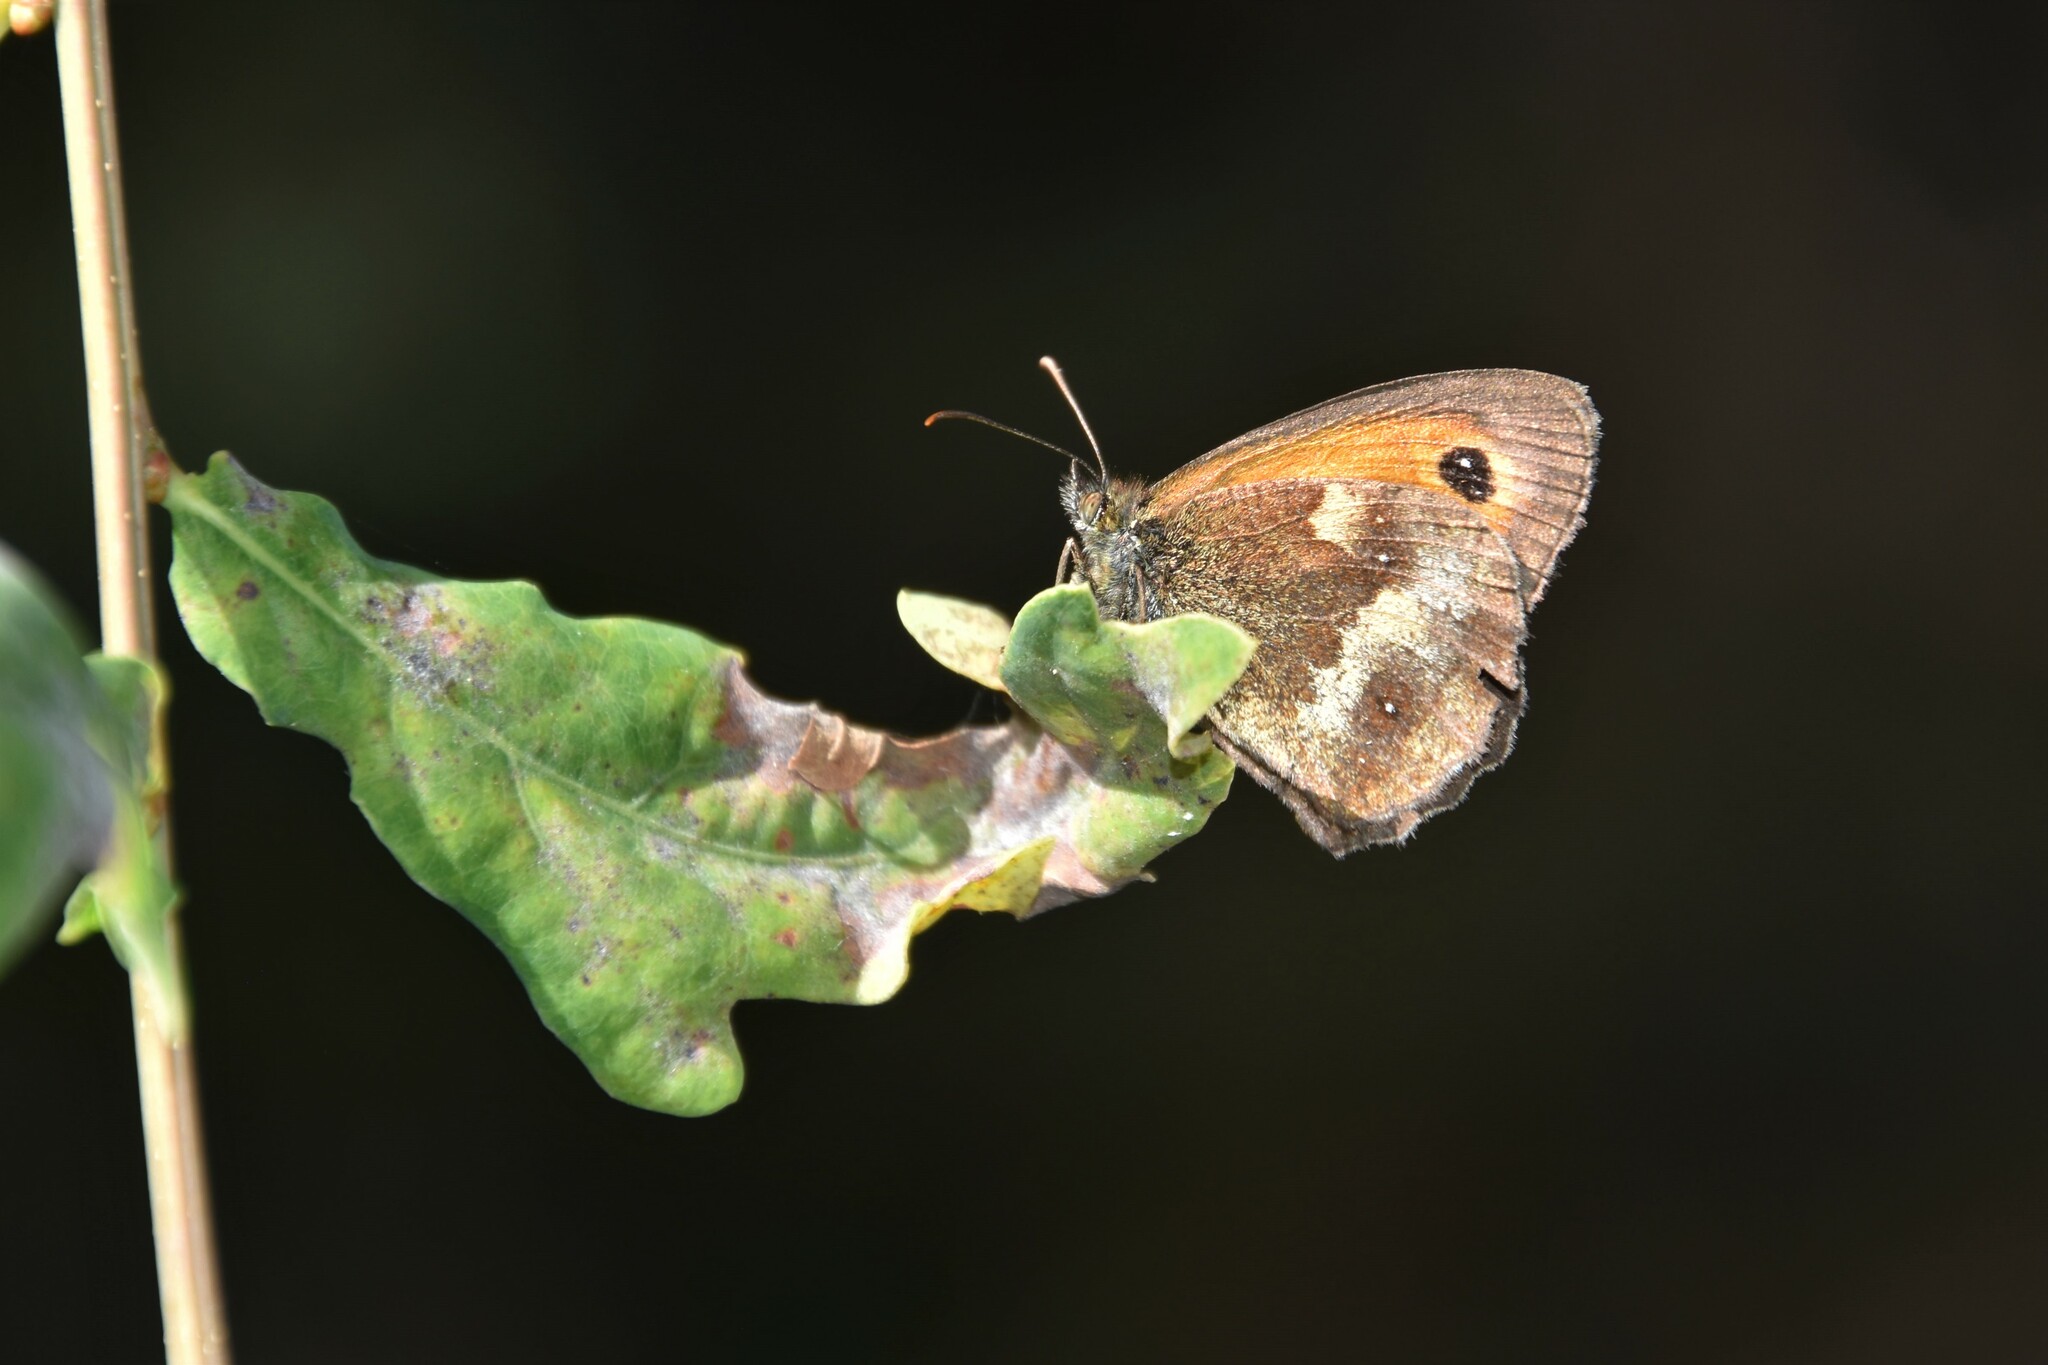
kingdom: Animalia
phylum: Arthropoda
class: Insecta
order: Lepidoptera
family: Nymphalidae
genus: Pyronia
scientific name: Pyronia tithonus
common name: Gatekeeper
